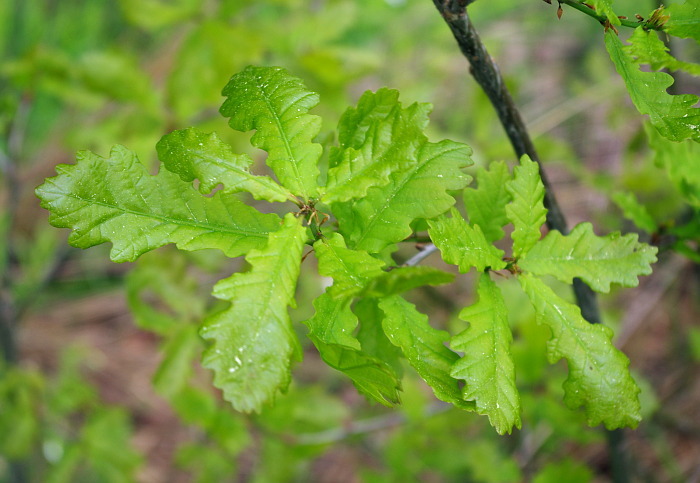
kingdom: Plantae
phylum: Tracheophyta
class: Magnoliopsida
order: Fagales
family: Fagaceae
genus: Quercus
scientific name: Quercus robur
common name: Pedunculate oak
